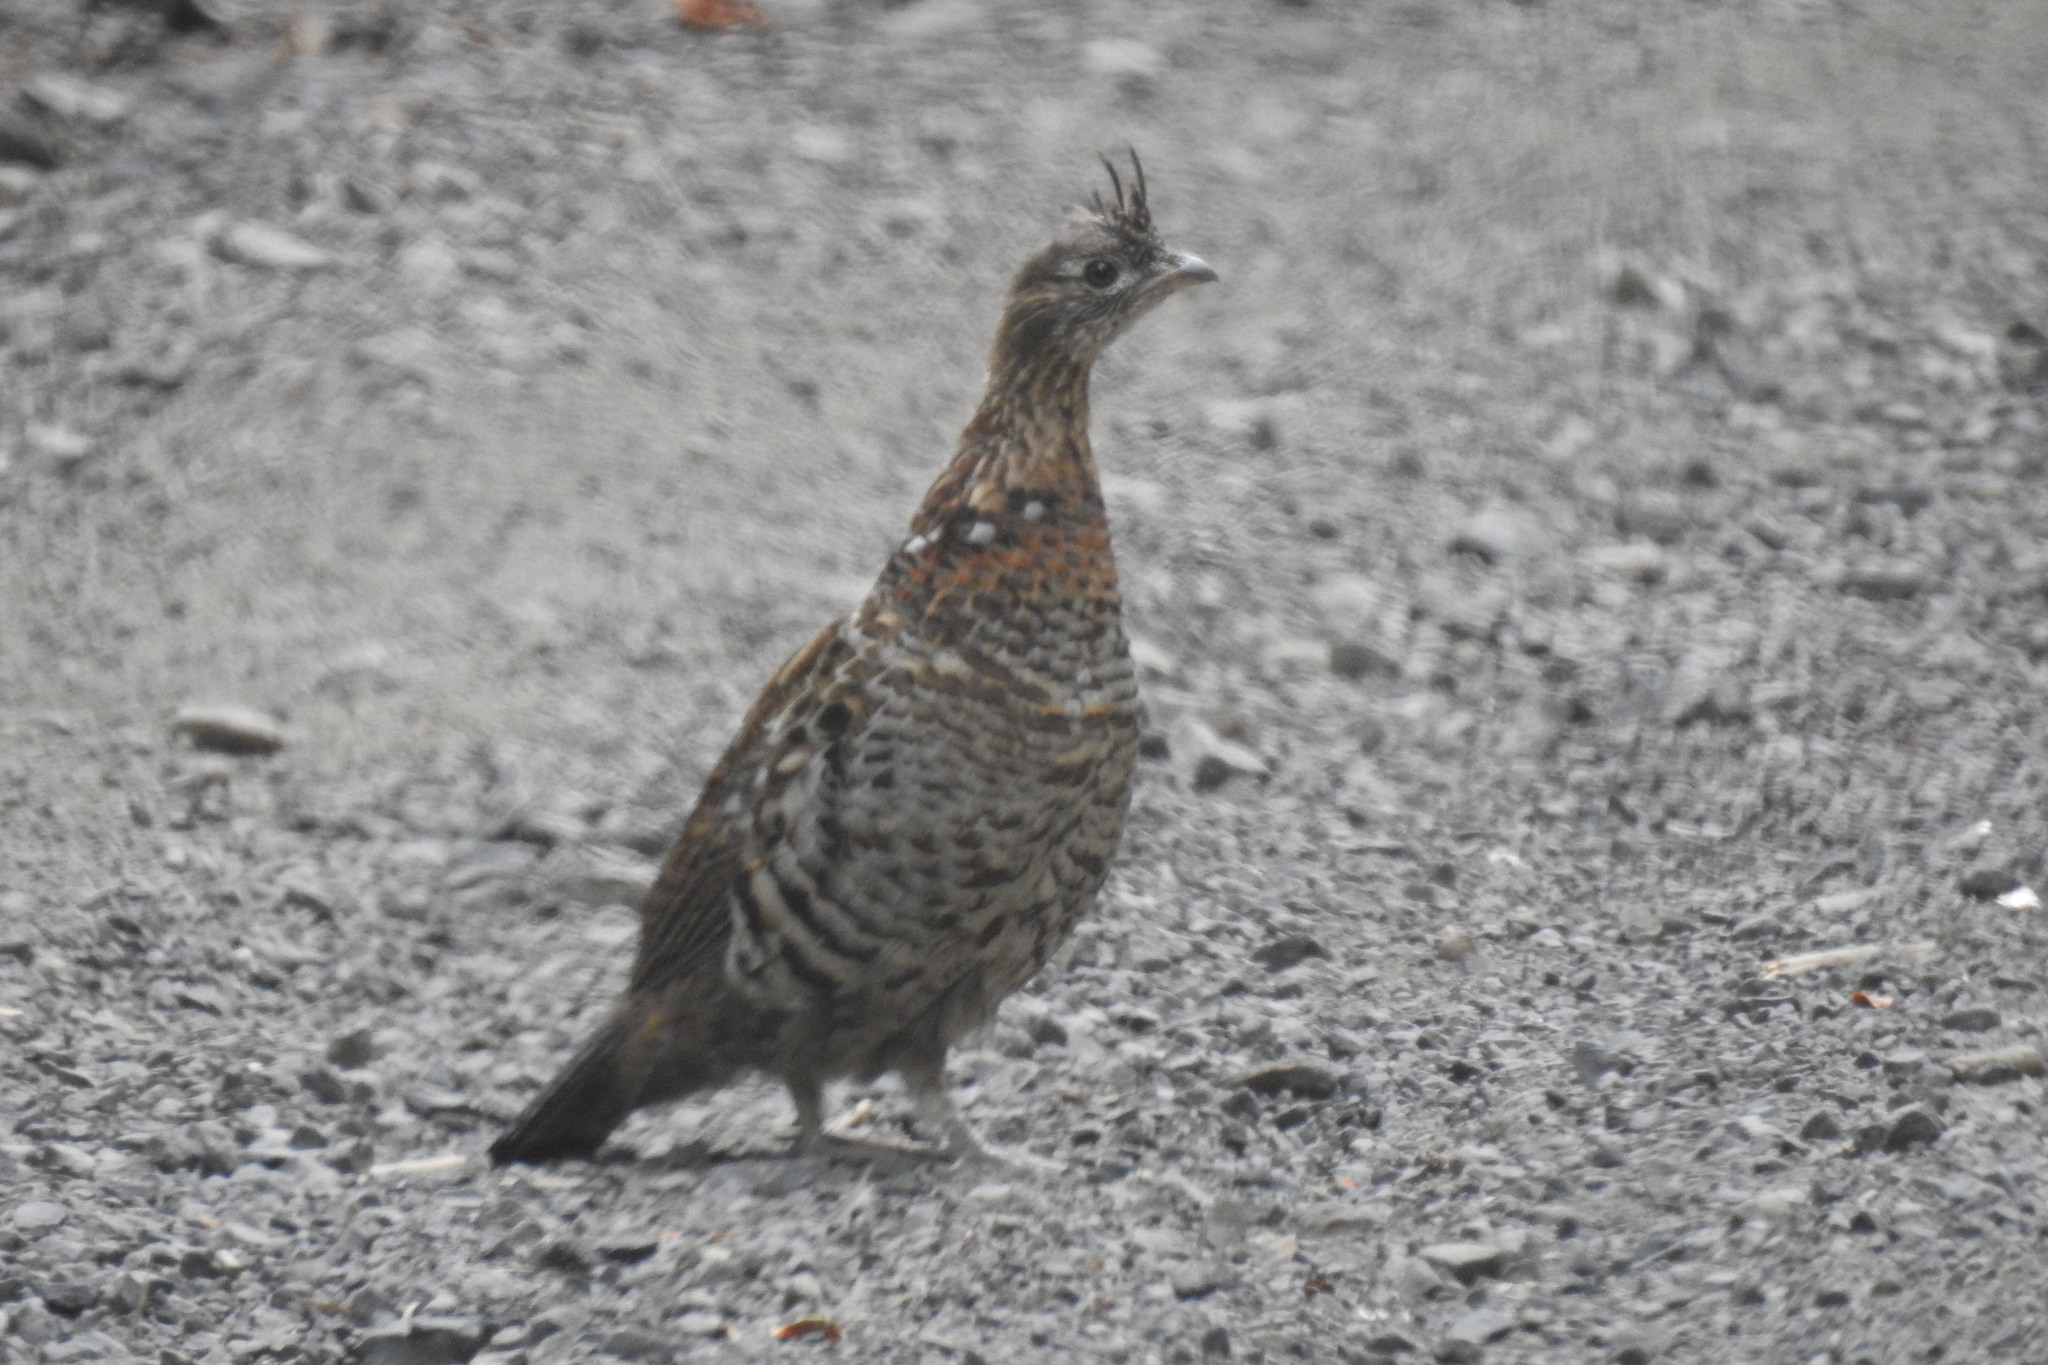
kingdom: Animalia
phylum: Chordata
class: Aves
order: Galliformes
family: Phasianidae
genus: Bonasa
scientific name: Bonasa umbellus
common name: Ruffed grouse
